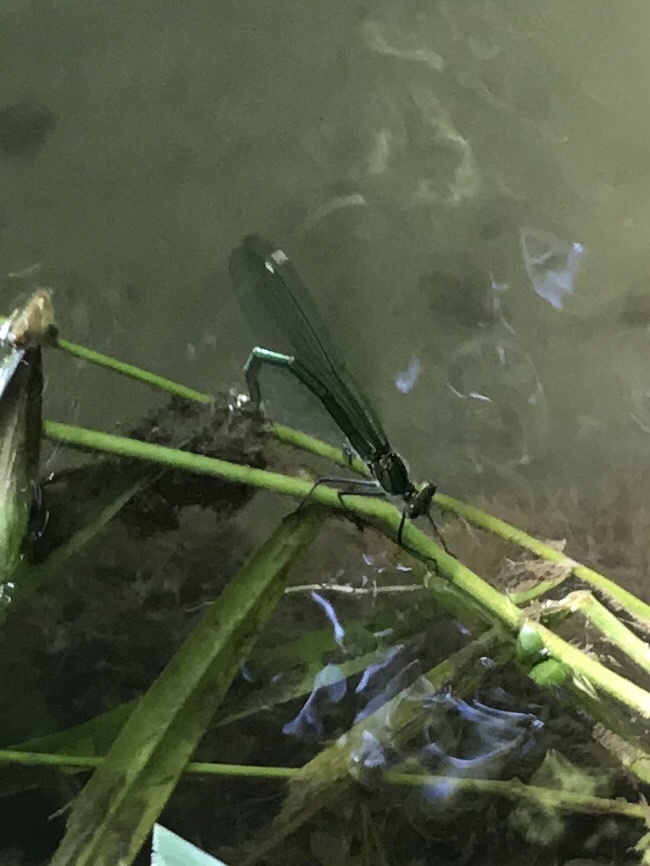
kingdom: Animalia
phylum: Arthropoda
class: Insecta
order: Odonata
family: Calopterygidae
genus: Calopteryx
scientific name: Calopteryx splendens
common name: Banded demoiselle
